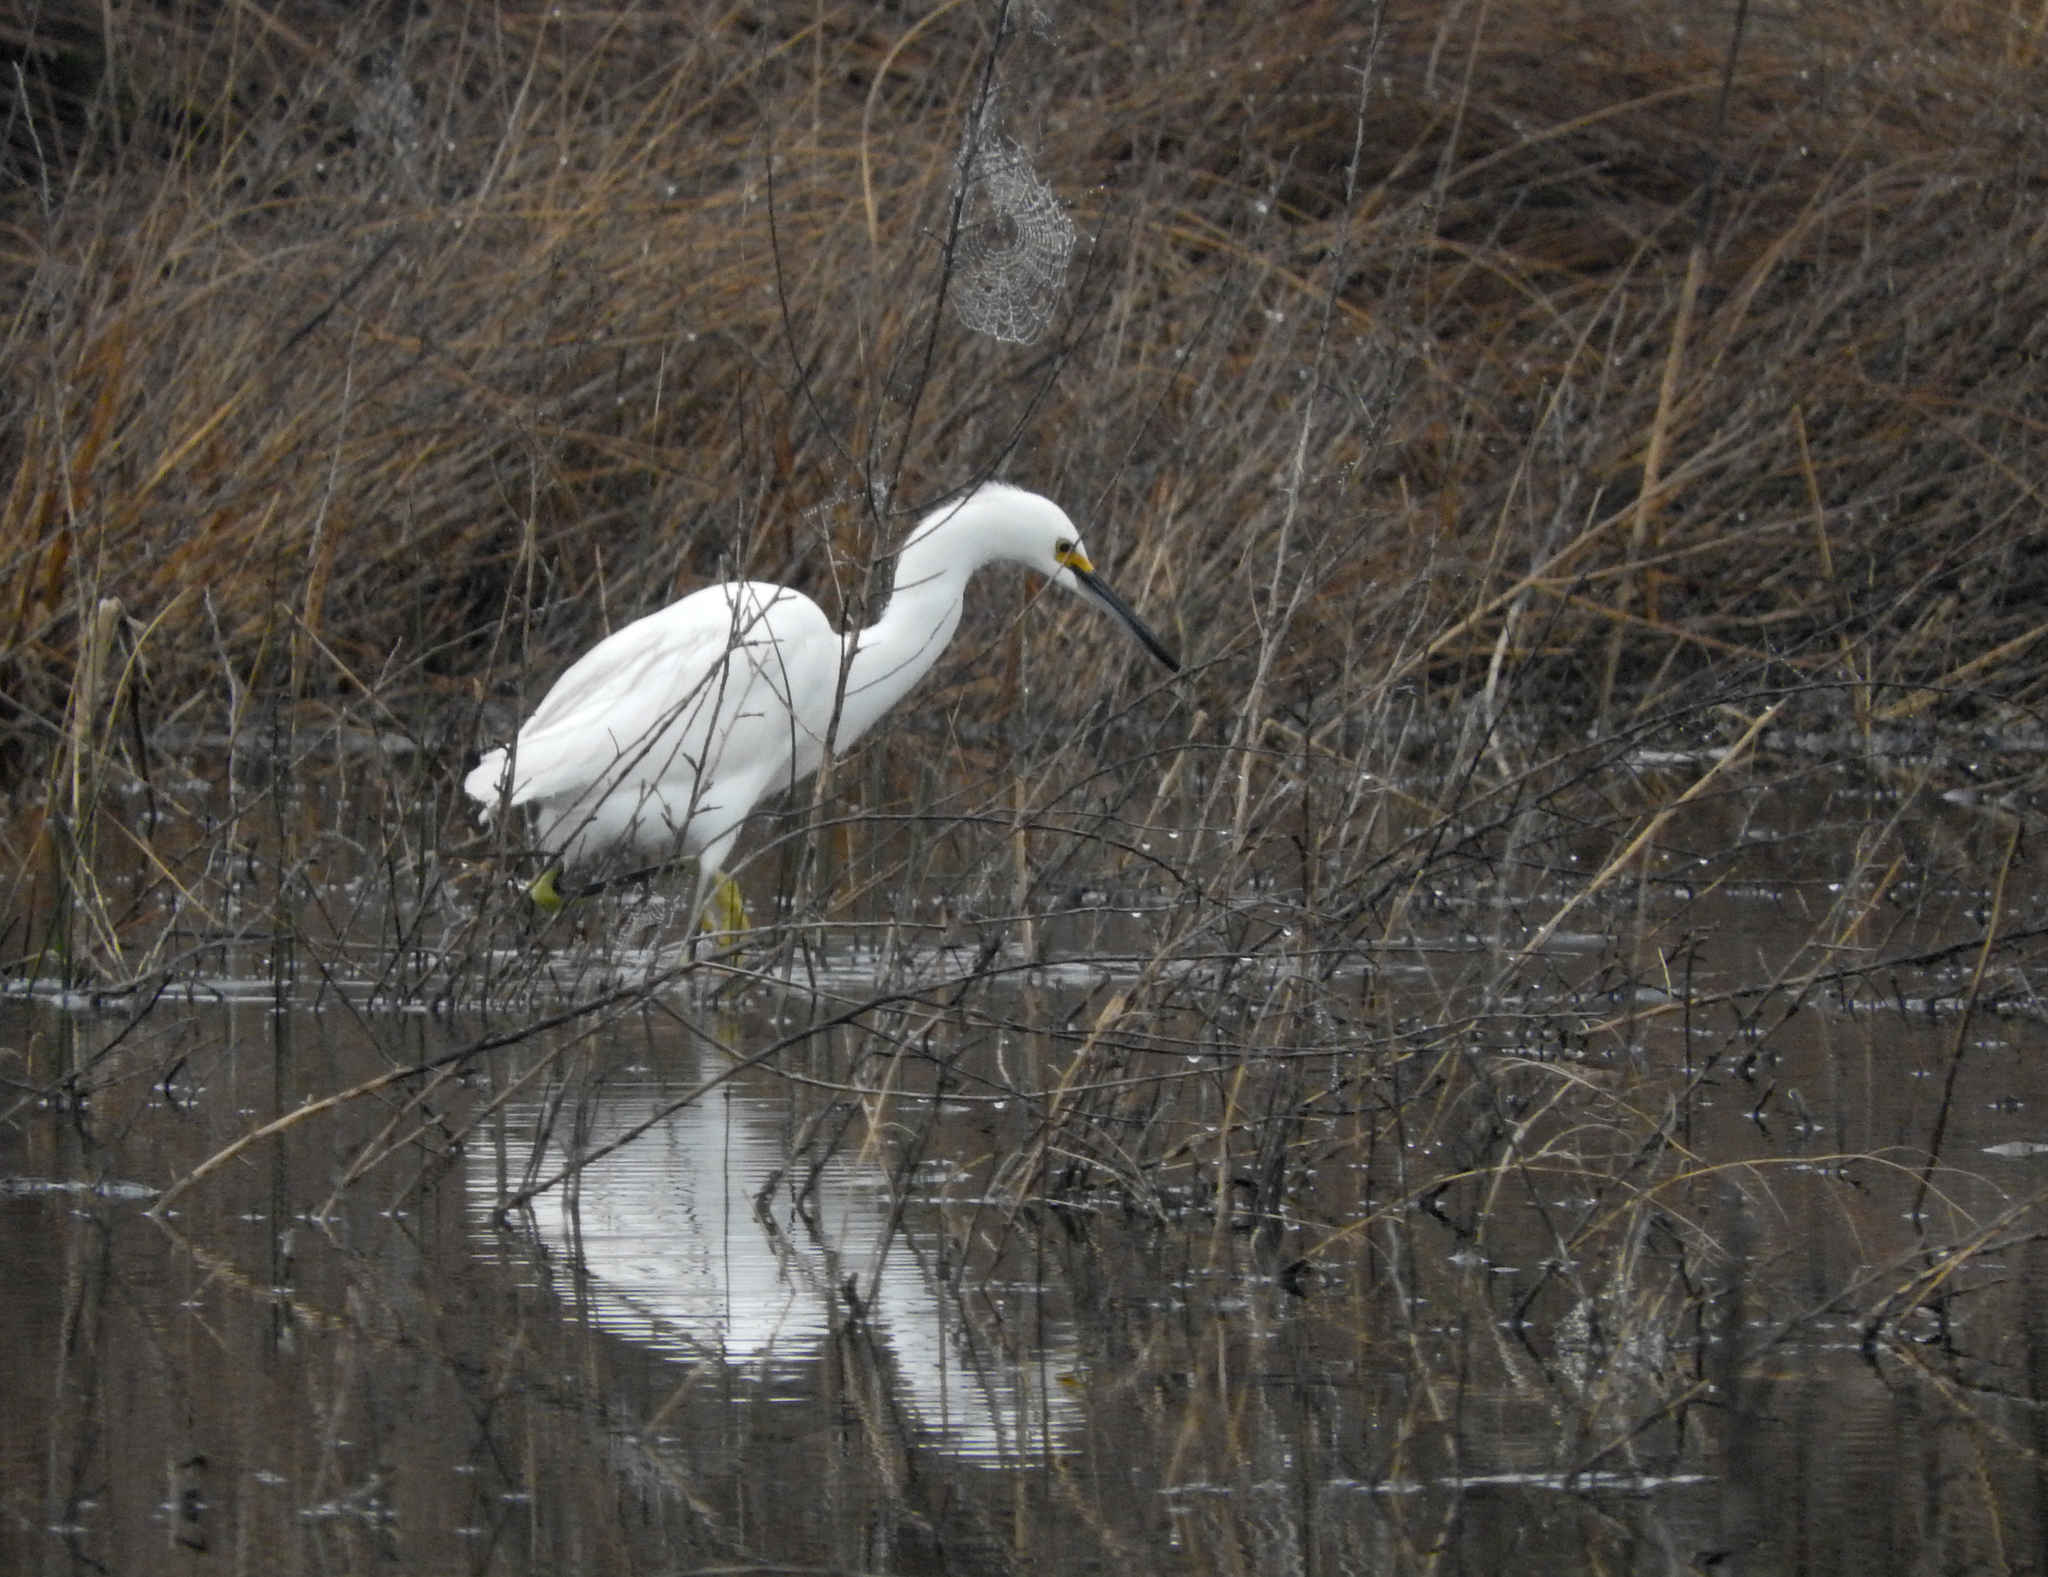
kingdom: Animalia
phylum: Chordata
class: Aves
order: Pelecaniformes
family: Ardeidae
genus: Egretta
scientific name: Egretta thula
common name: Snowy egret
